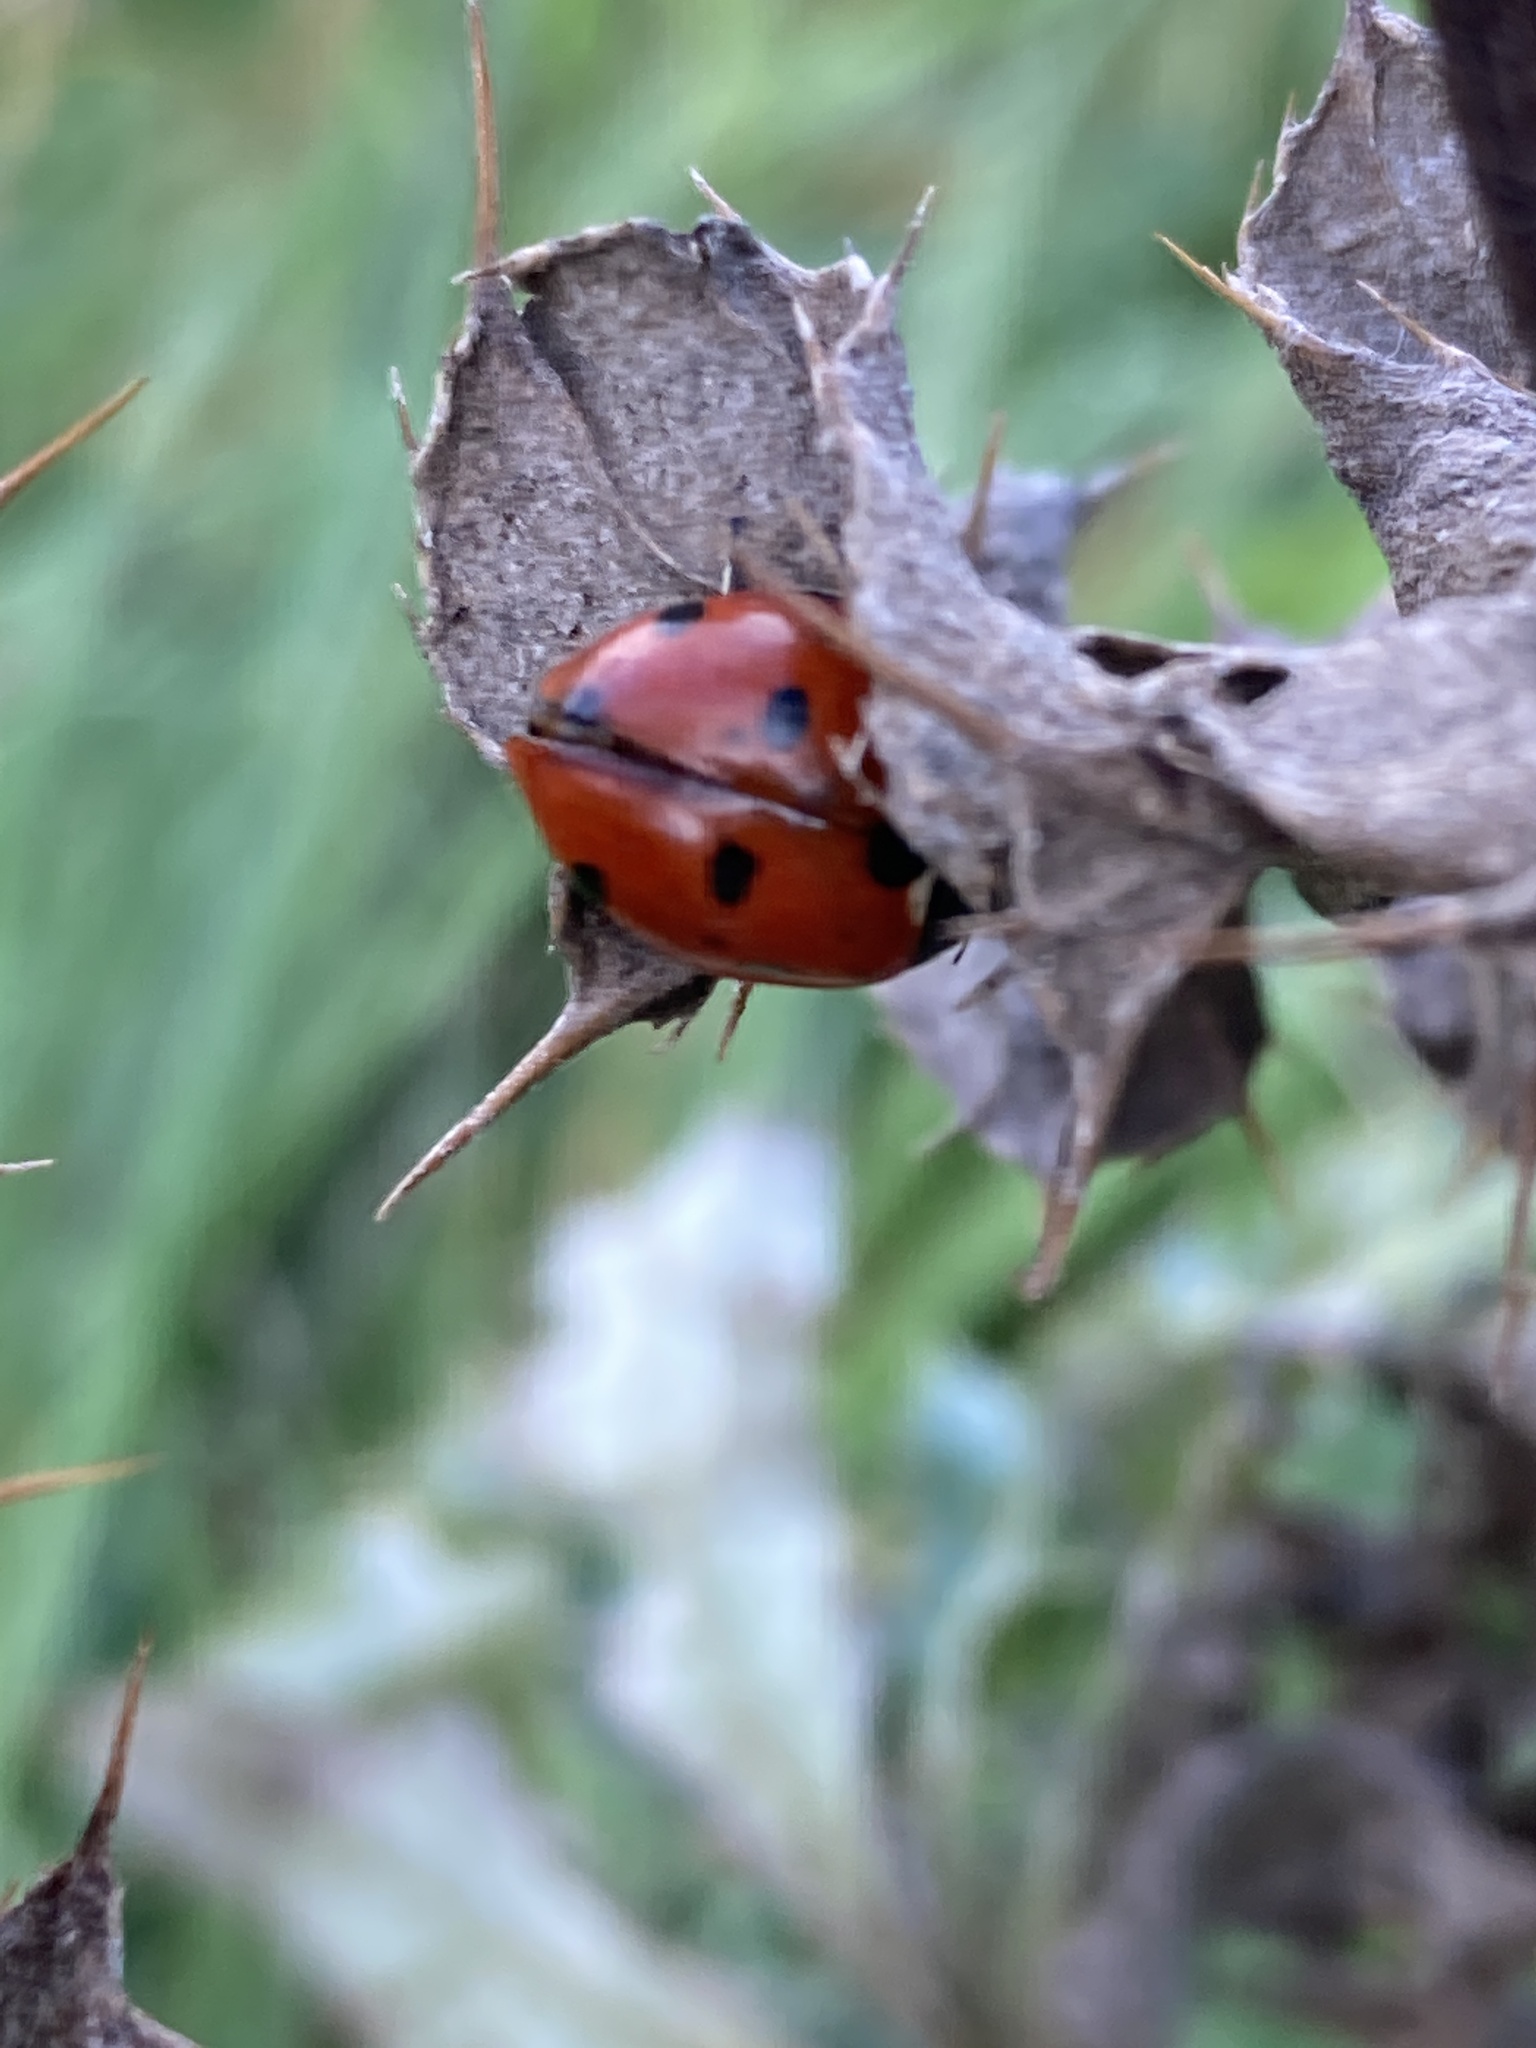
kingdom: Animalia
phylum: Arthropoda
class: Insecta
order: Coleoptera
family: Coccinellidae
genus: Coccinella
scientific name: Coccinella septempunctata
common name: Sevenspotted lady beetle
